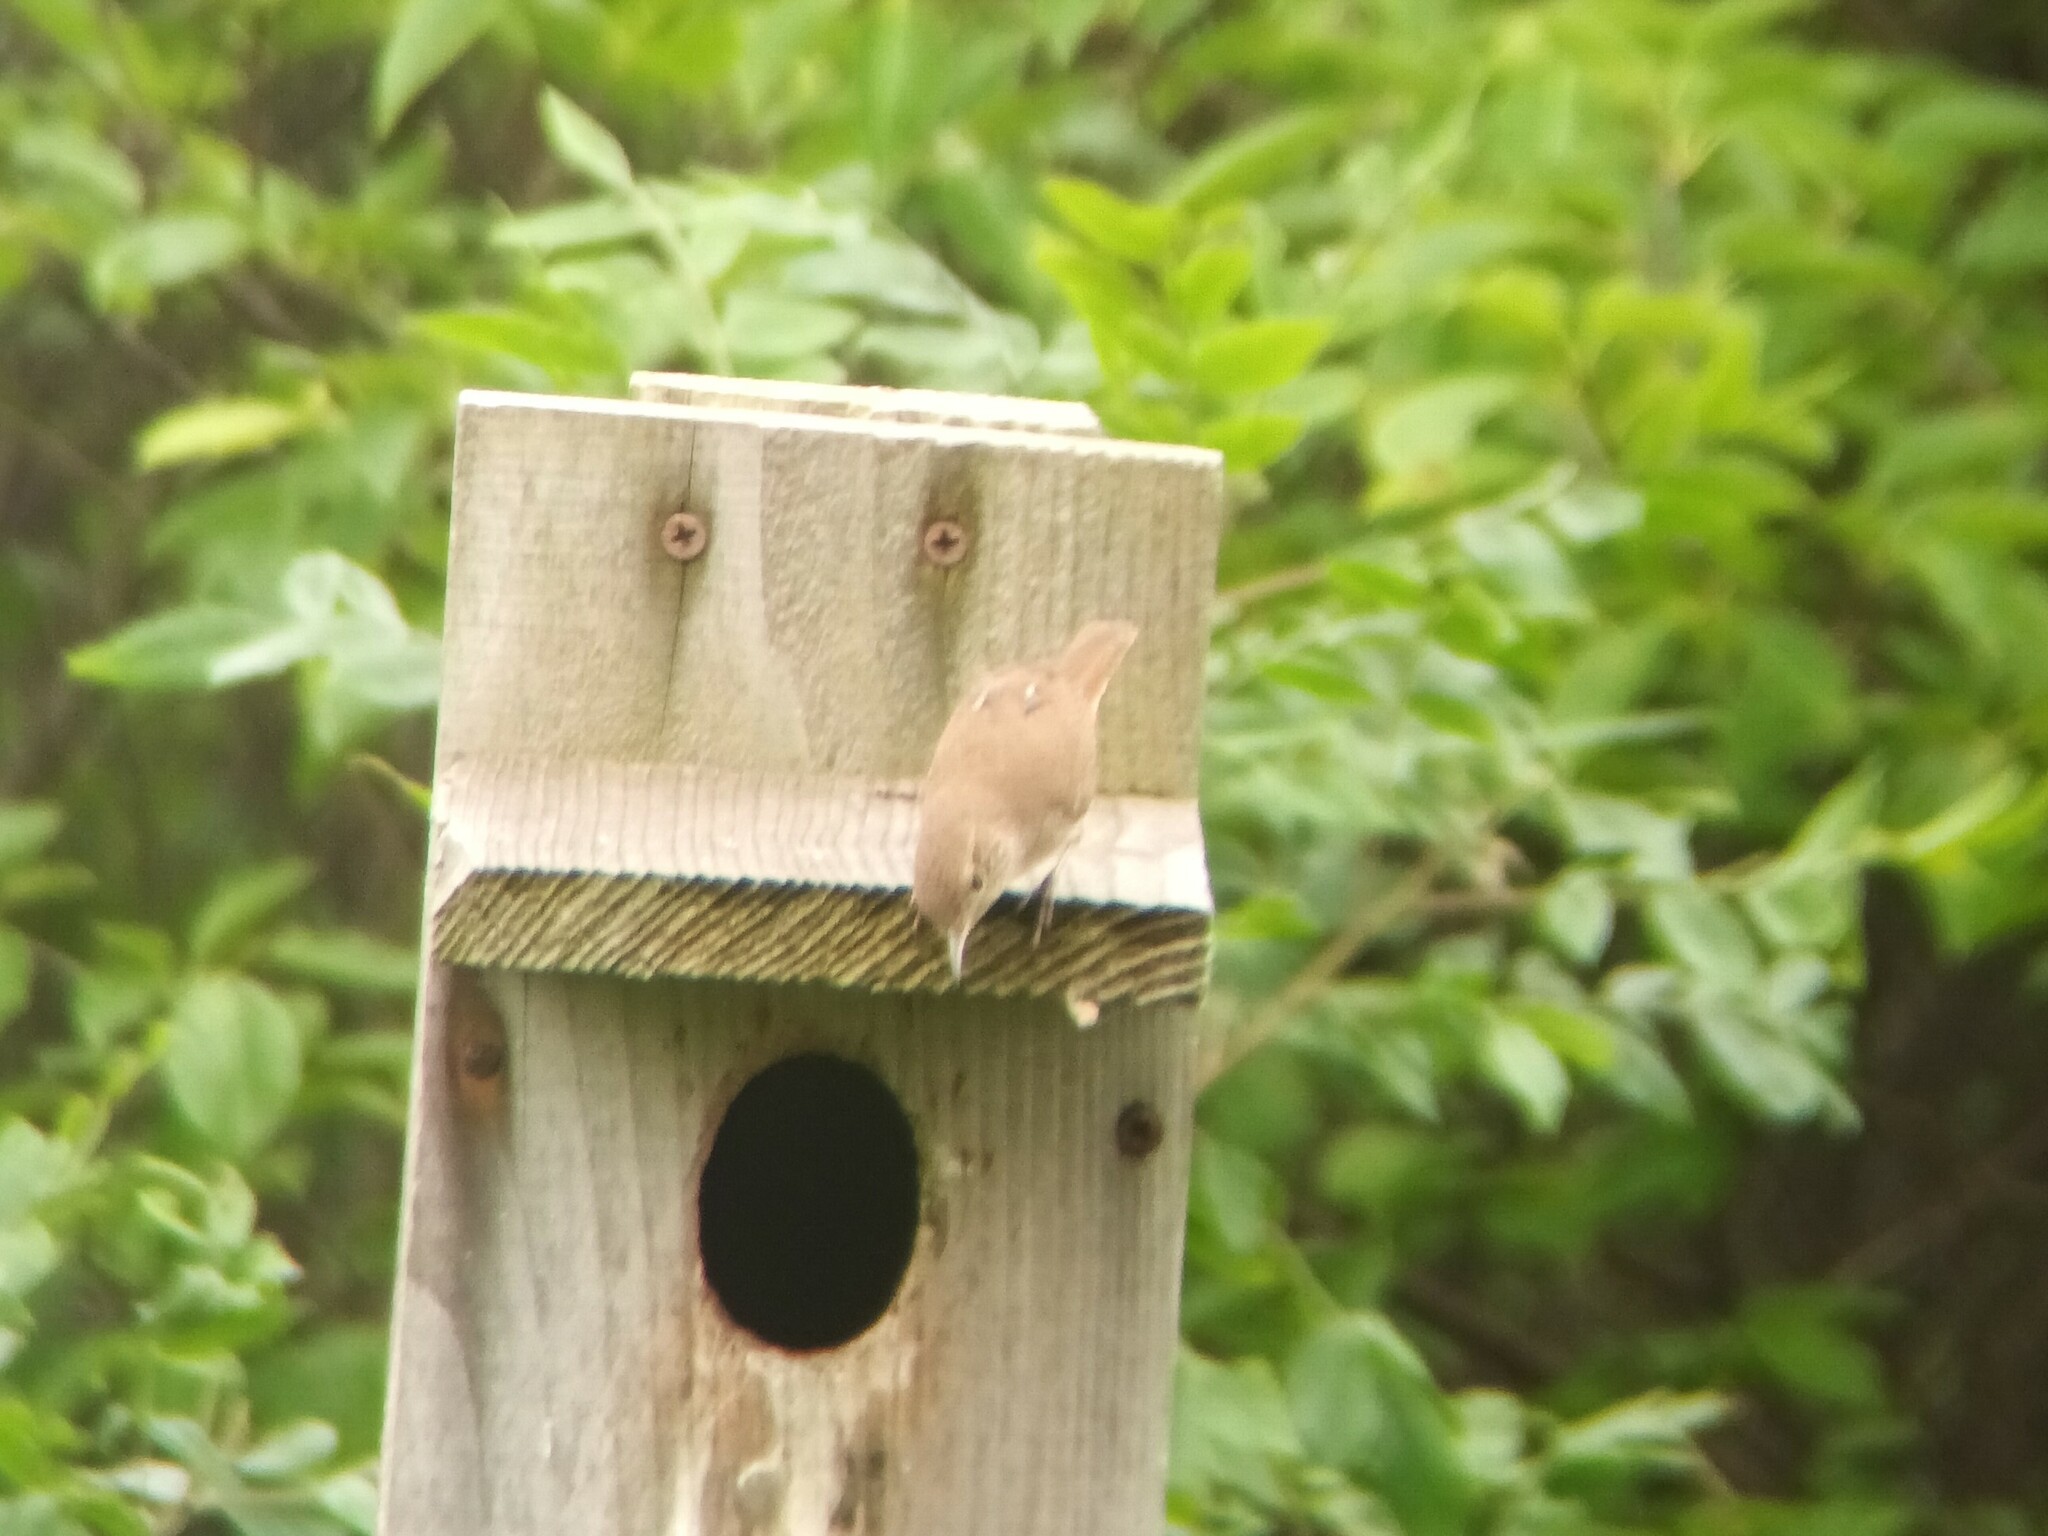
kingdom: Animalia
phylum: Chordata
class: Aves
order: Passeriformes
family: Troglodytidae
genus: Troglodytes
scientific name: Troglodytes aedon
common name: House wren
